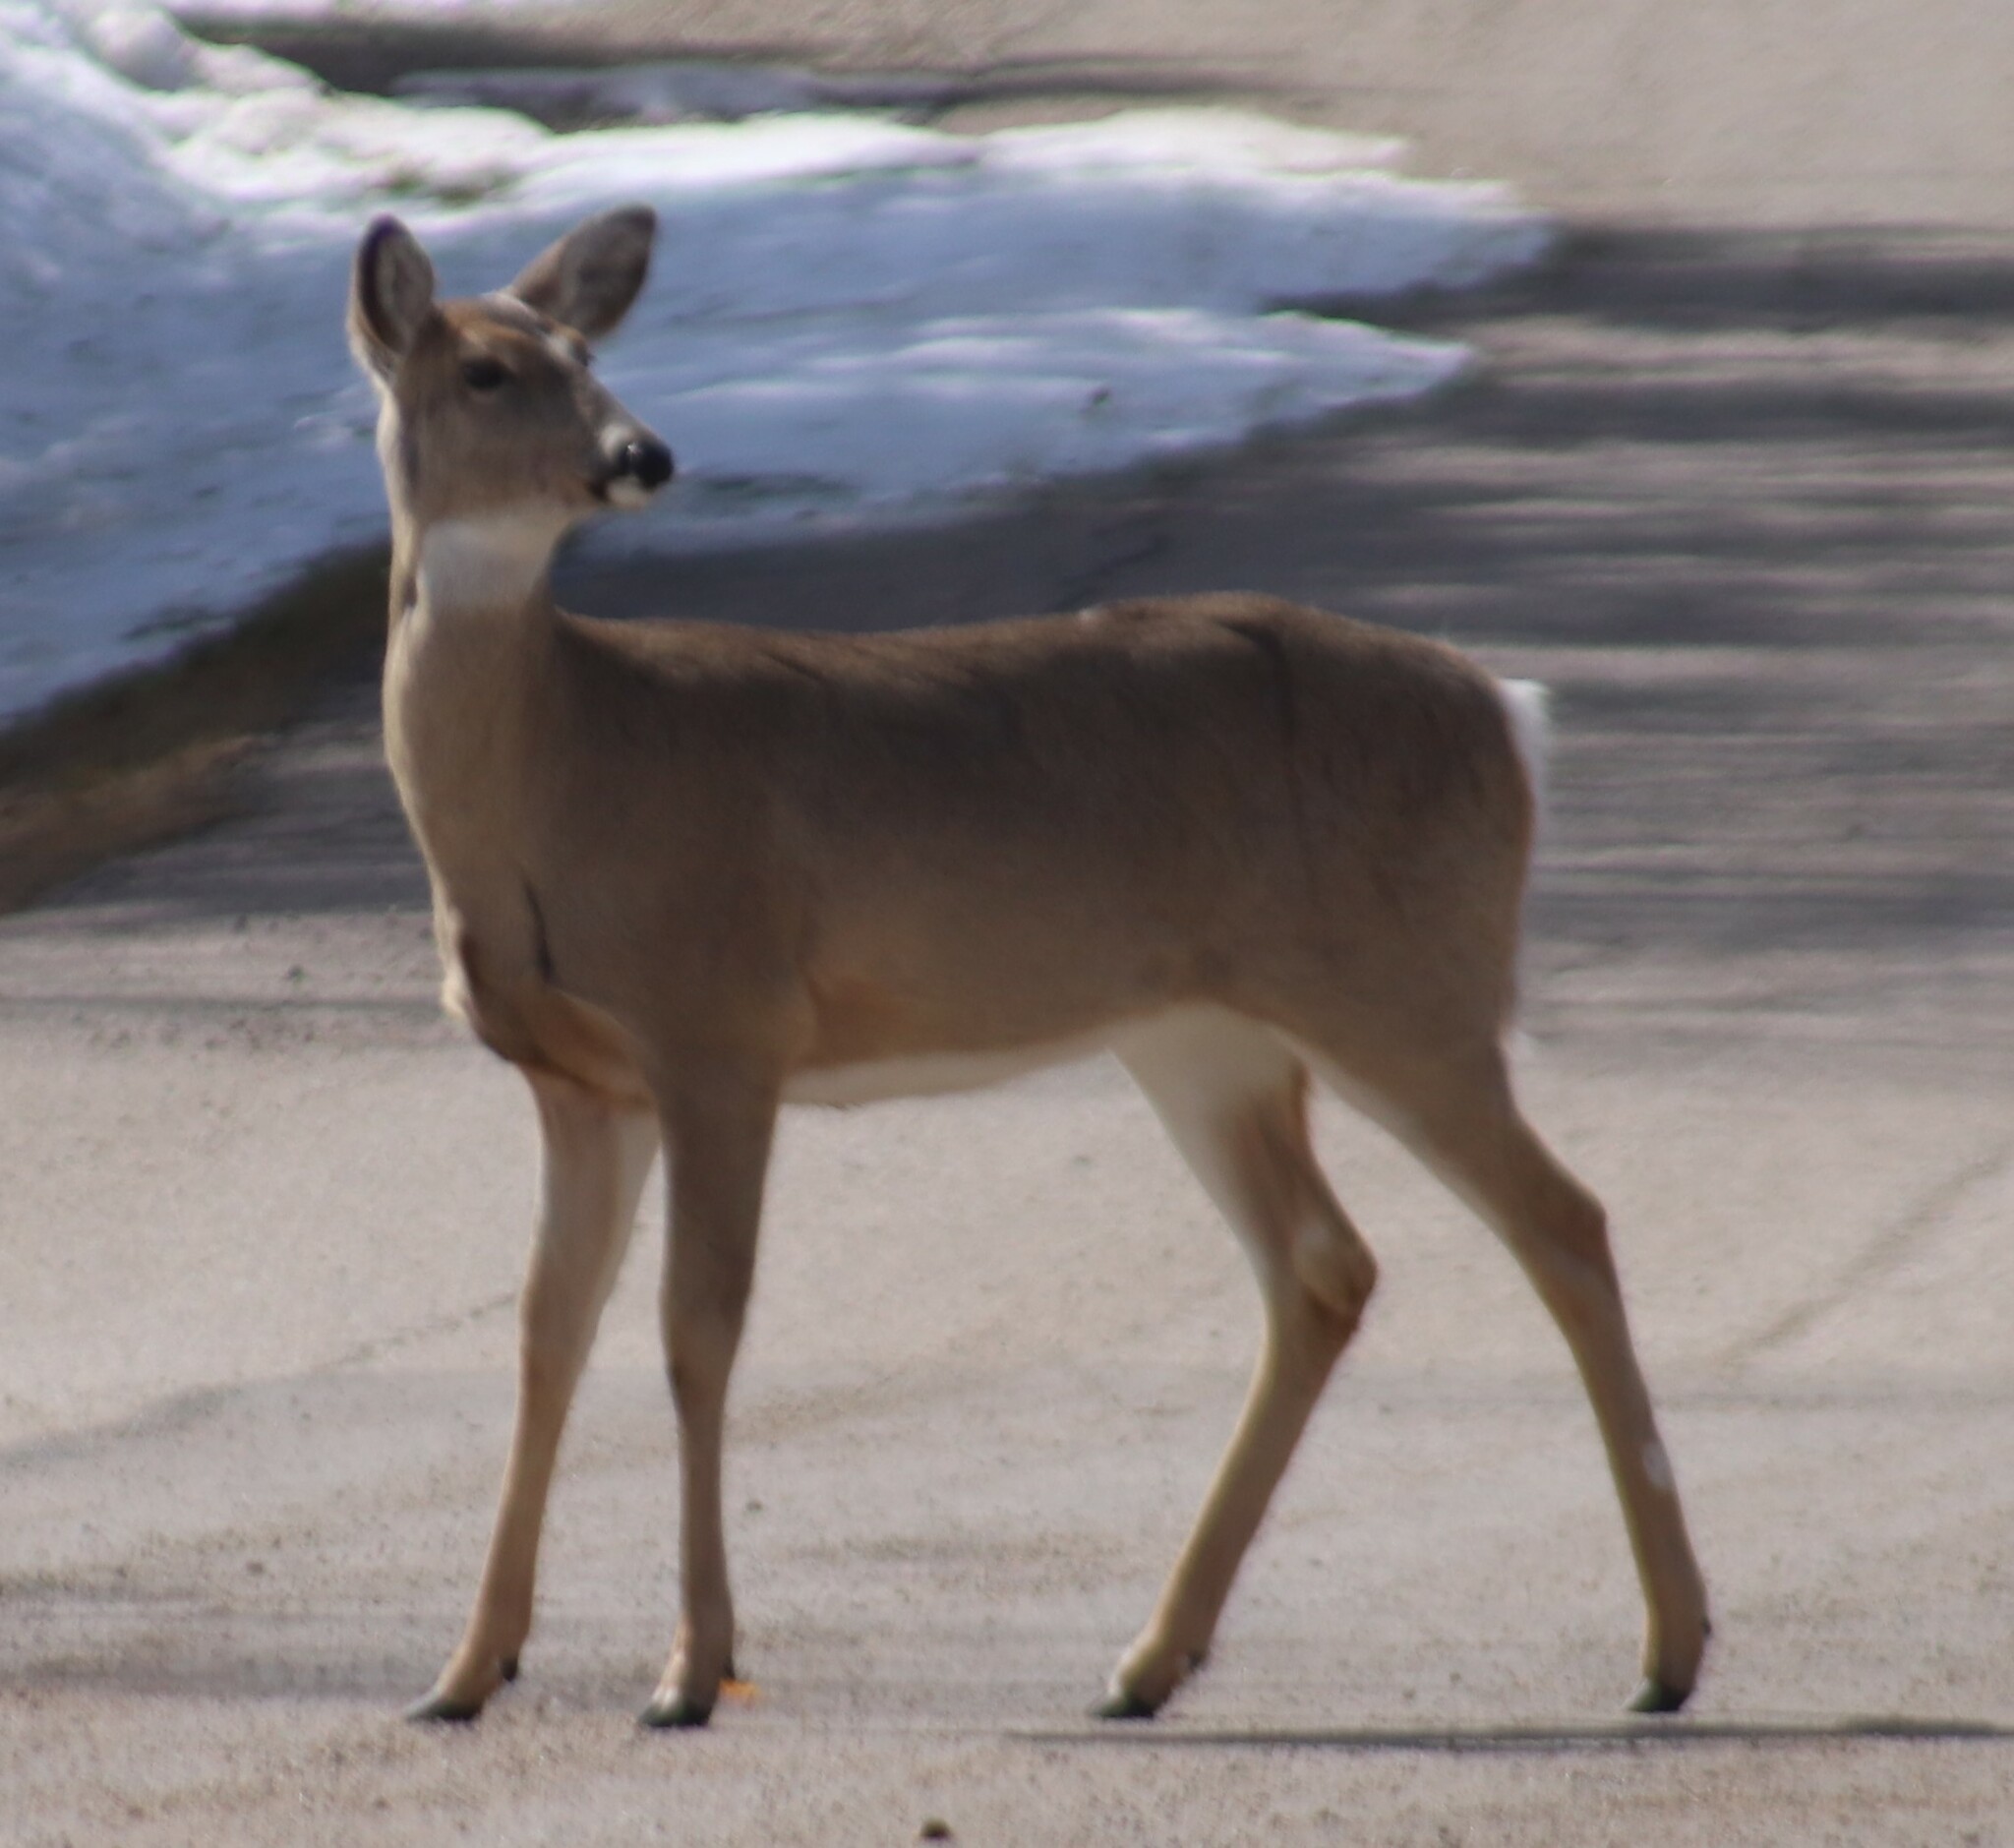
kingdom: Animalia
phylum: Chordata
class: Mammalia
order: Artiodactyla
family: Cervidae
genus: Odocoileus
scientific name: Odocoileus virginianus
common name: White-tailed deer
